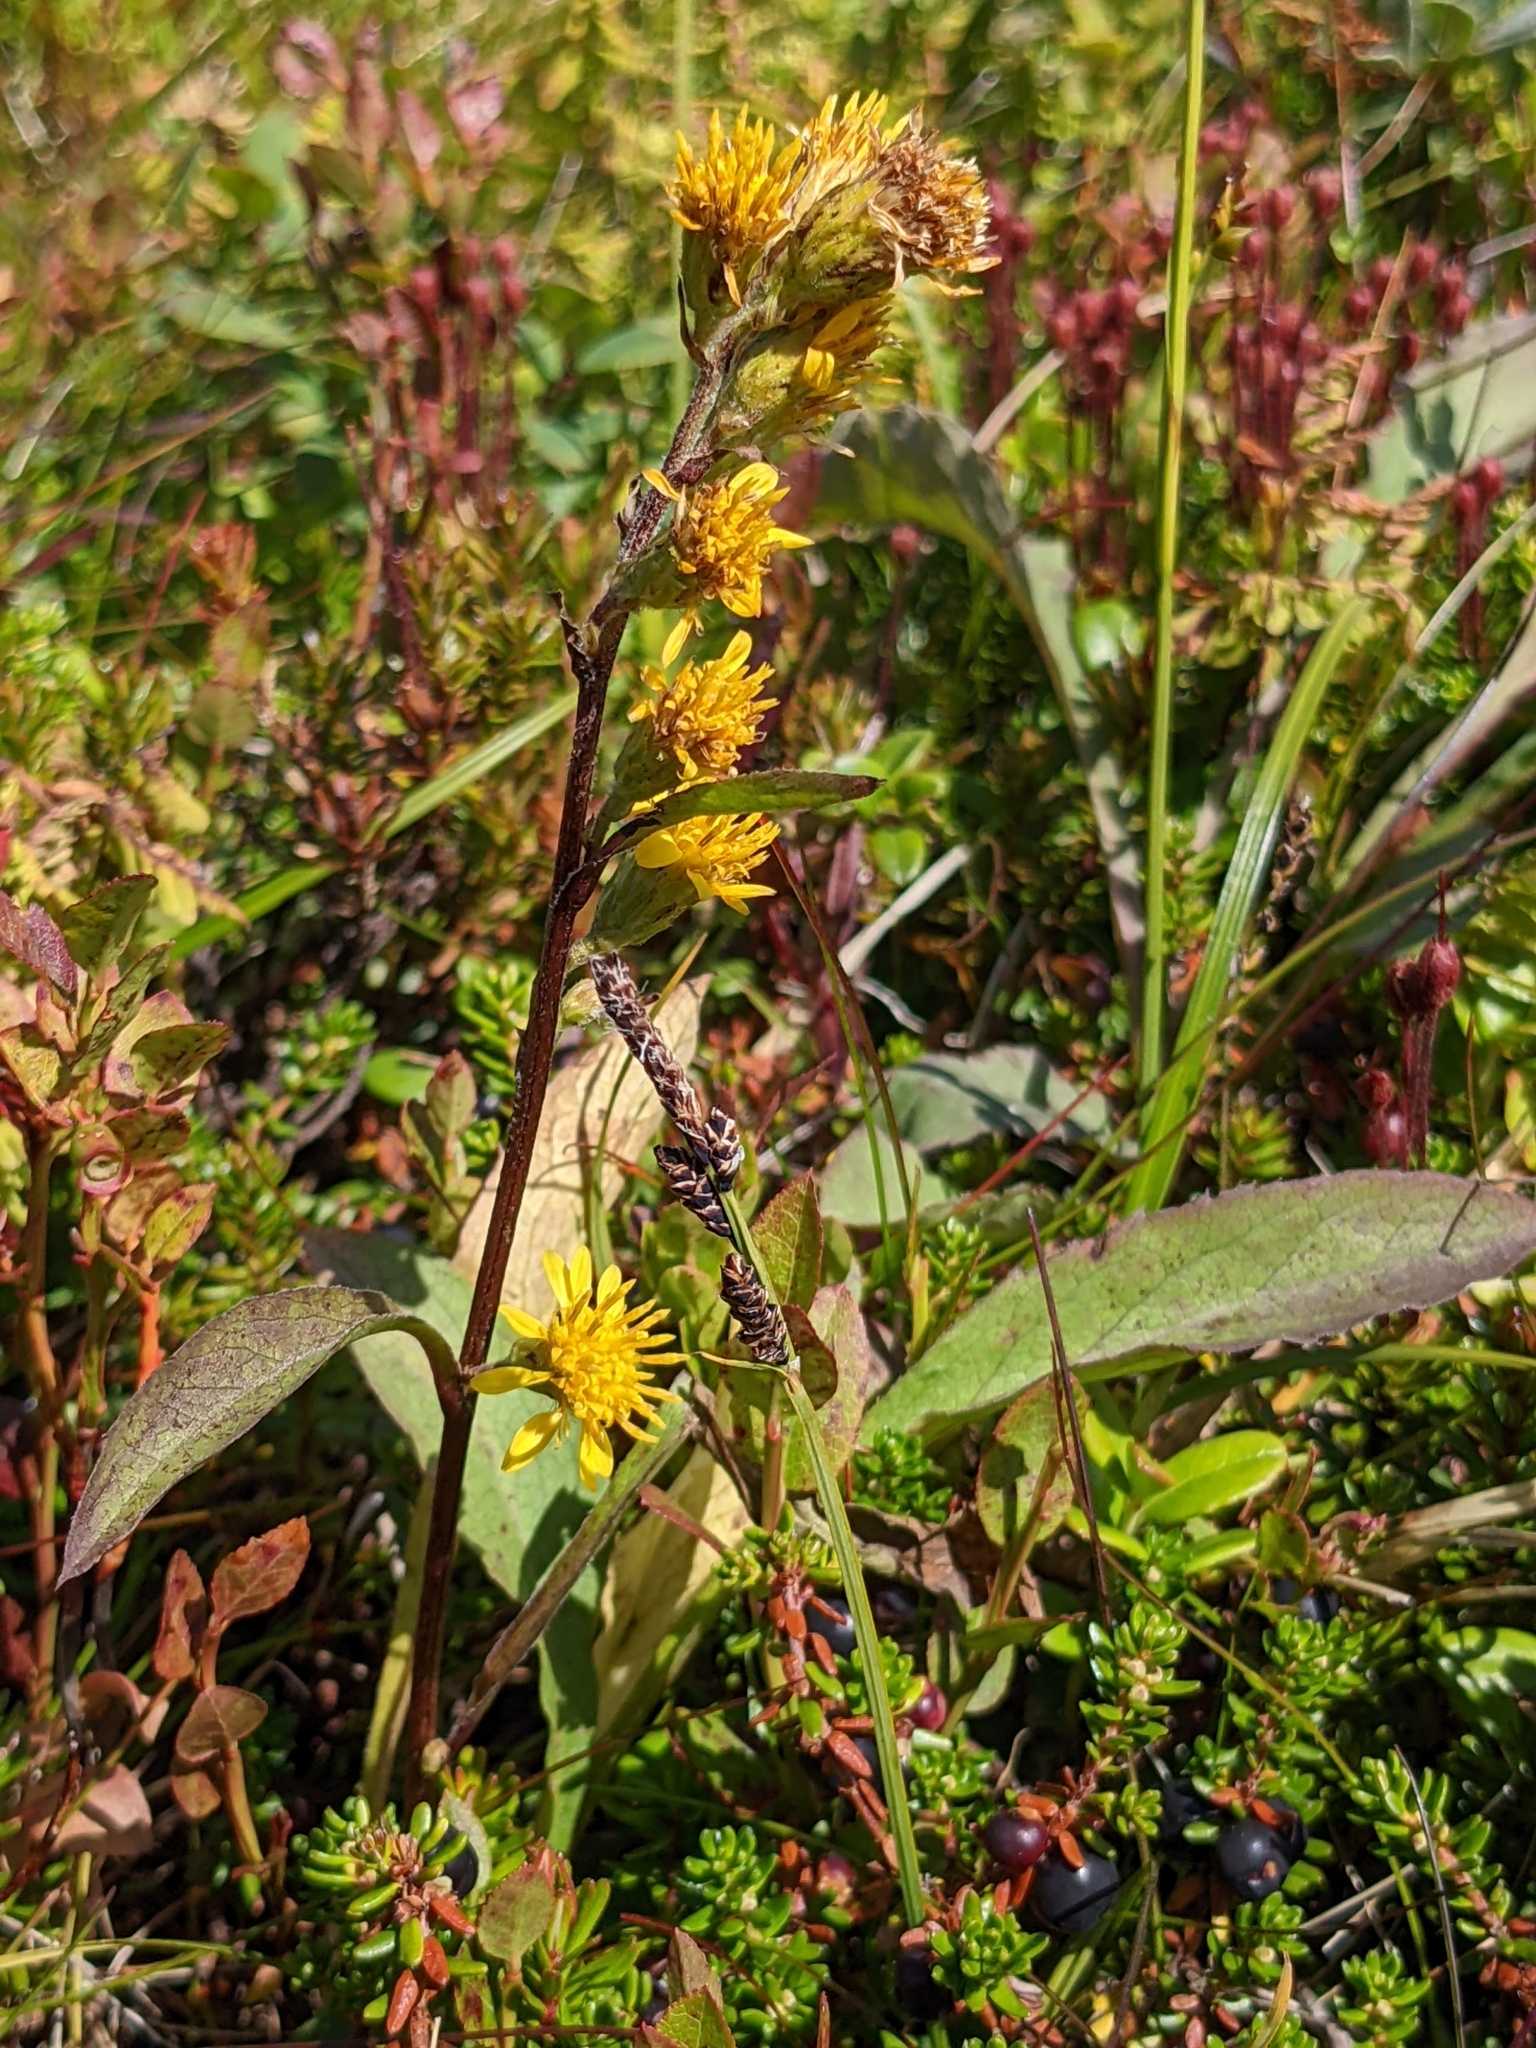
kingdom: Plantae
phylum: Tracheophyta
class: Magnoliopsida
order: Asterales
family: Asteraceae
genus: Solidago
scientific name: Solidago virgaurea
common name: Goldenrod
